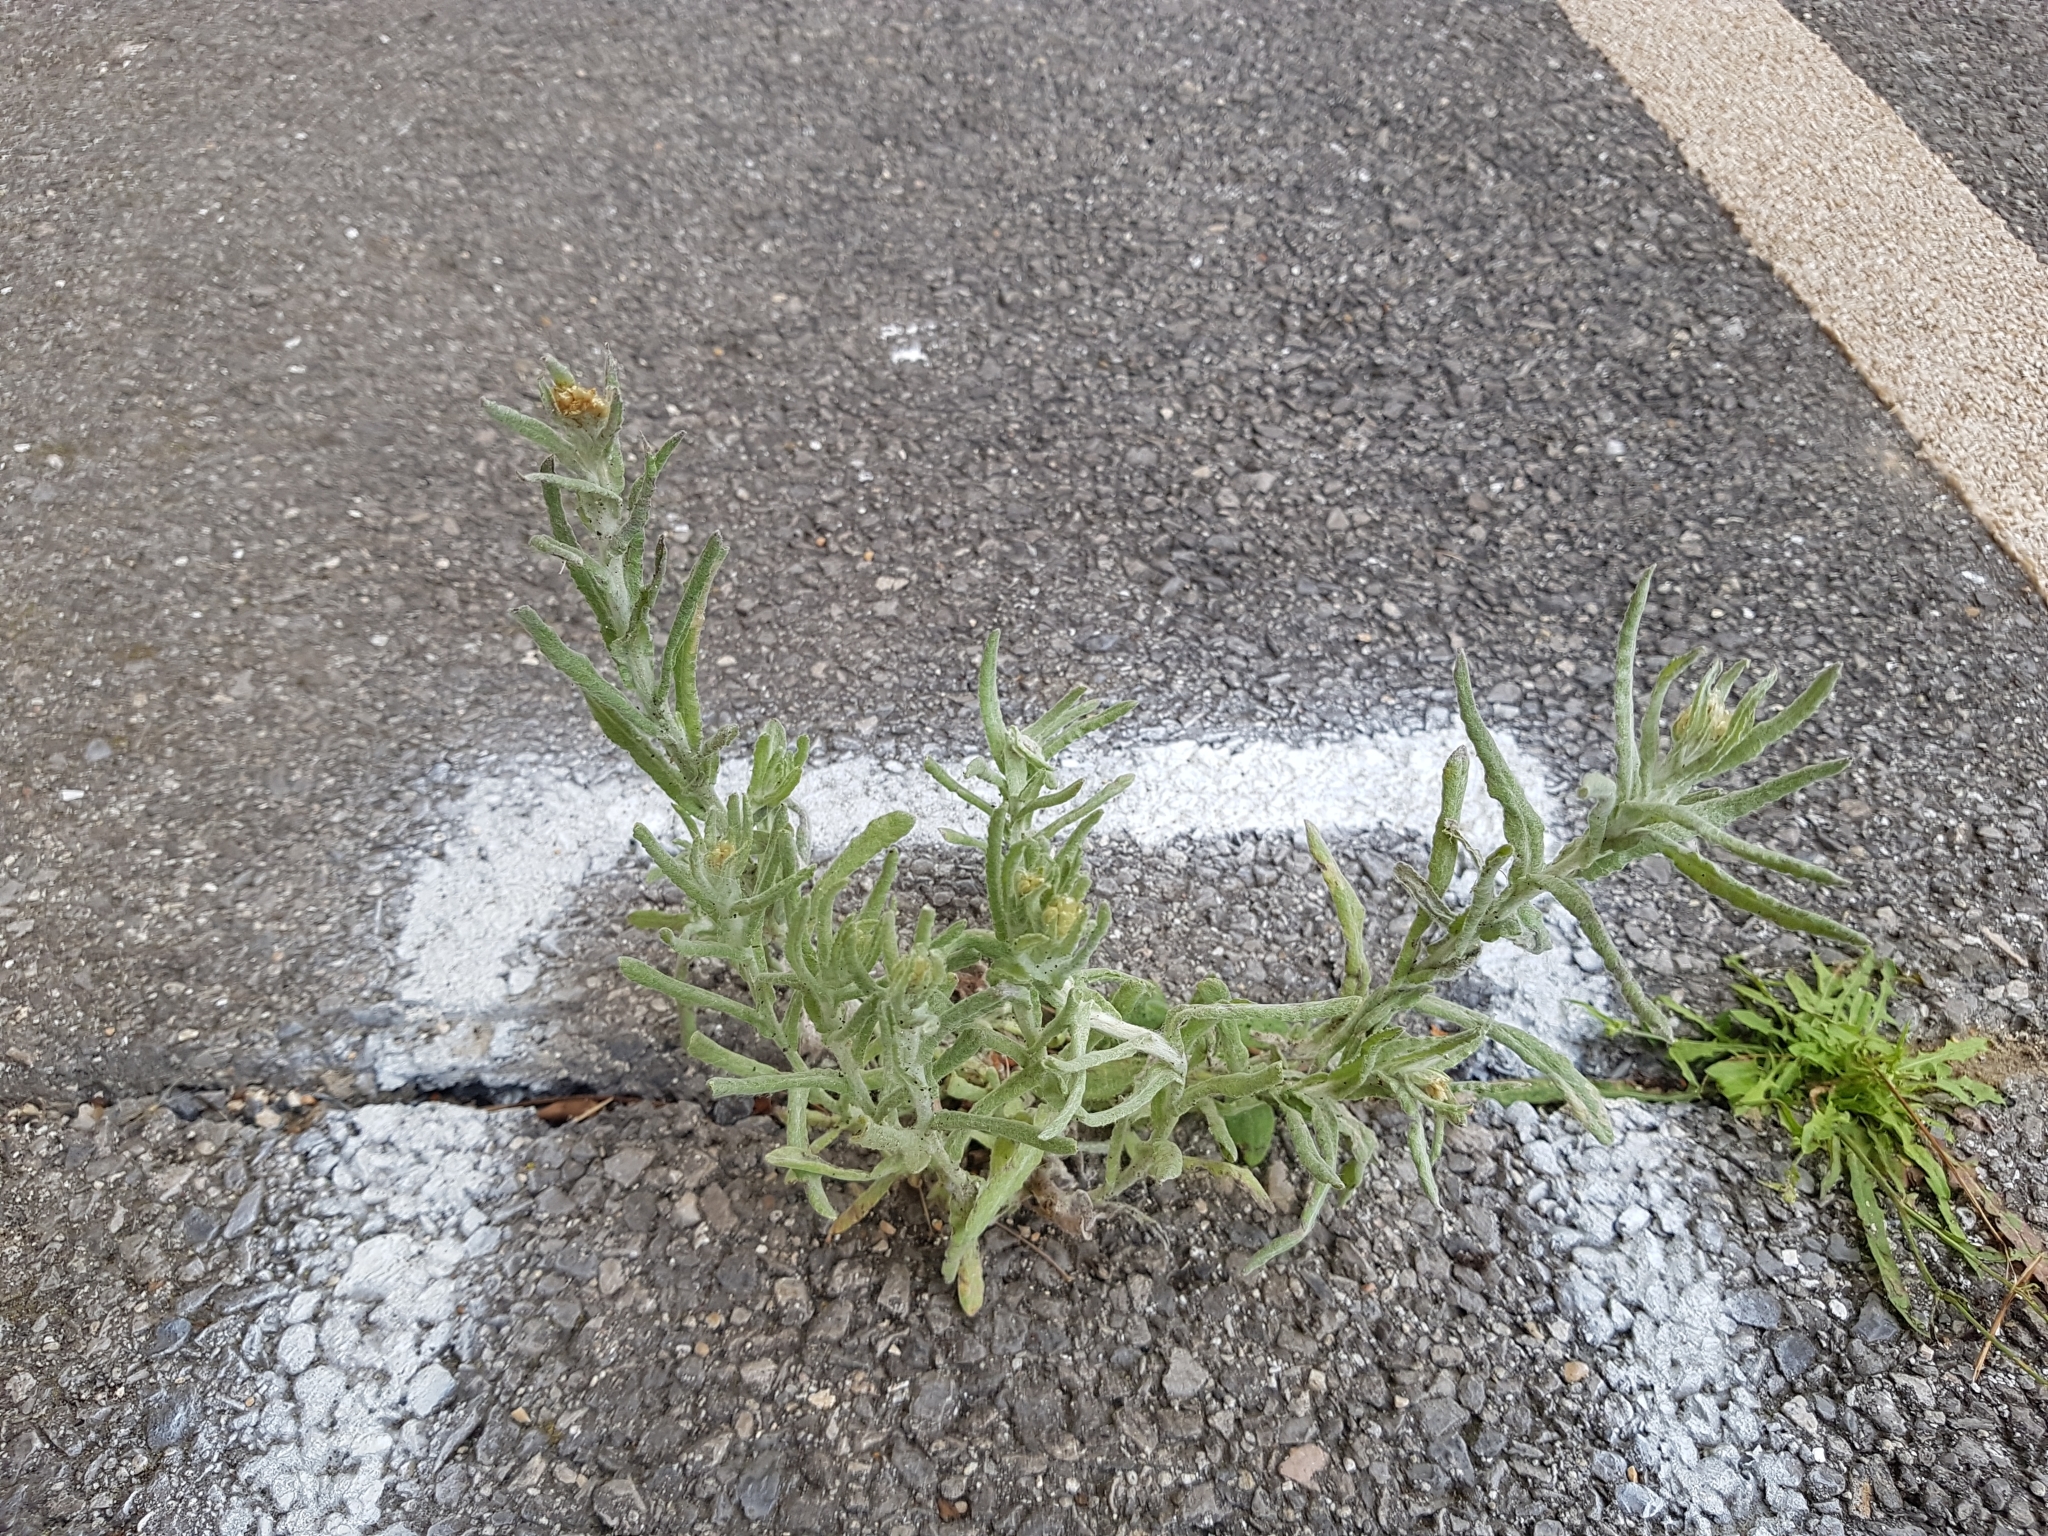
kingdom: Plantae
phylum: Tracheophyta
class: Magnoliopsida
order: Asterales
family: Asteraceae
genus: Helichrysum
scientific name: Helichrysum luteoalbum
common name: Daisy
